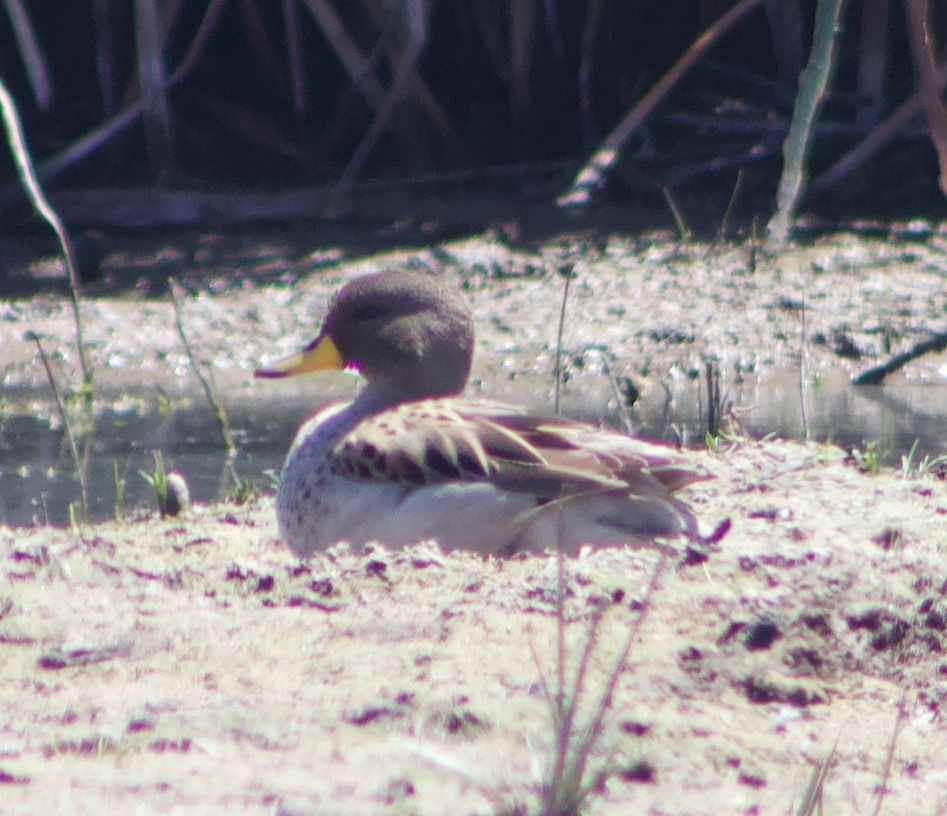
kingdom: Animalia
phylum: Chordata
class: Aves
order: Anseriformes
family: Anatidae
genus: Anas
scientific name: Anas flavirostris
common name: Yellow-billed teal
